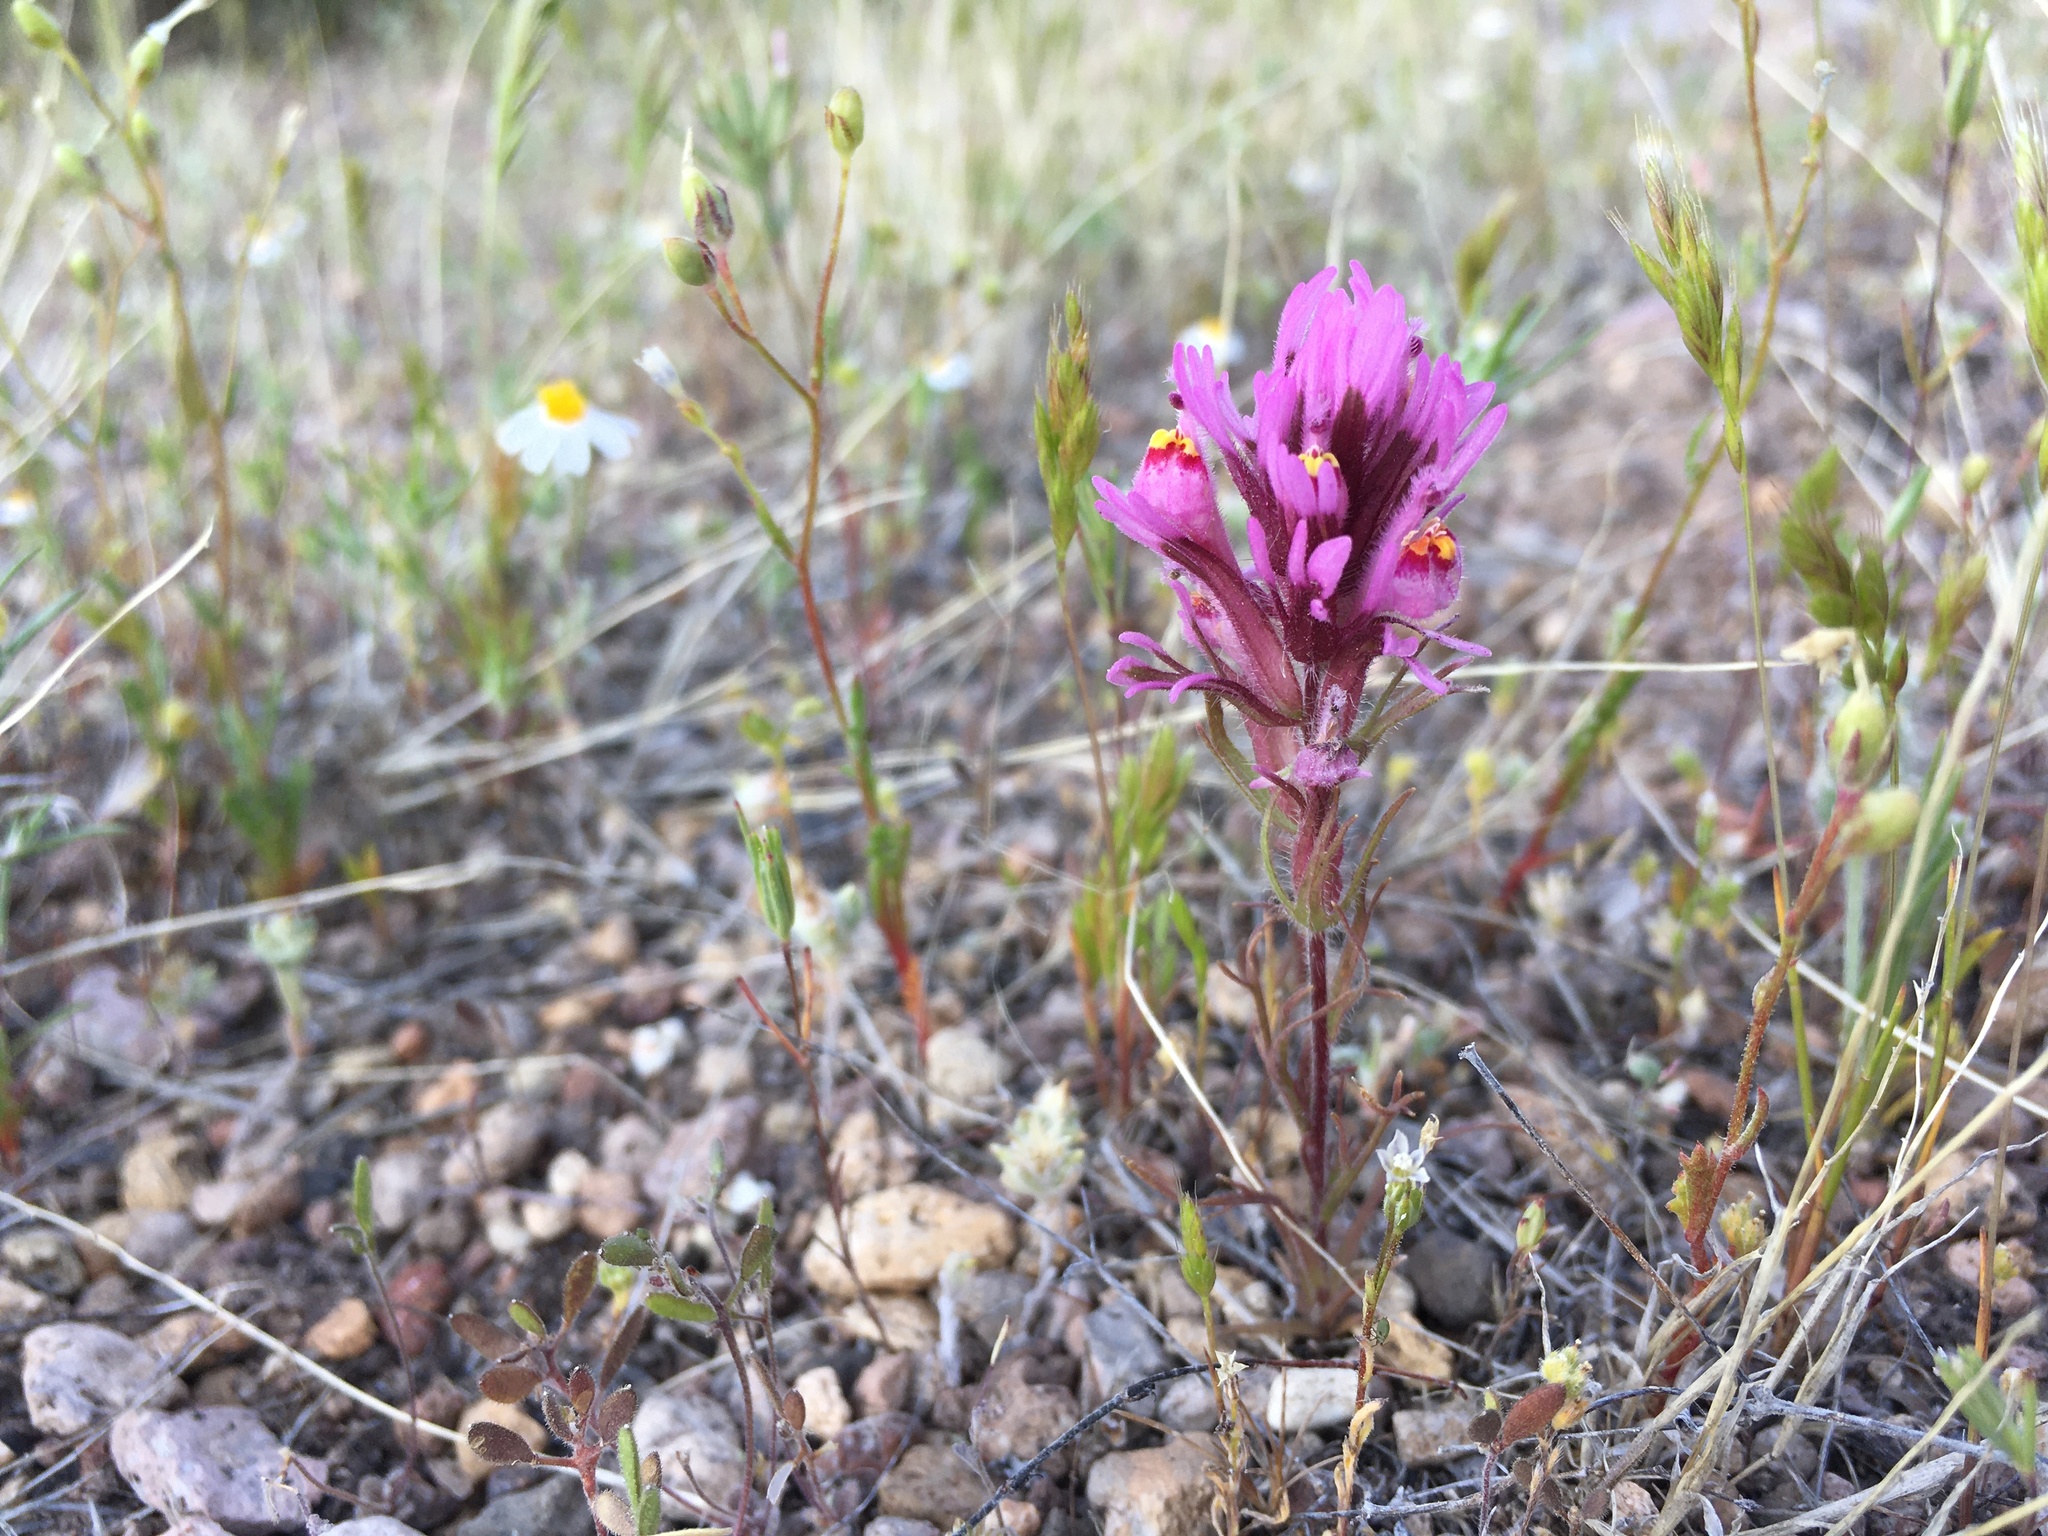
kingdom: Plantae
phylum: Tracheophyta
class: Magnoliopsida
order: Lamiales
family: Orobanchaceae
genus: Castilleja
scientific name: Castilleja exserta
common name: Purple owl-clover
